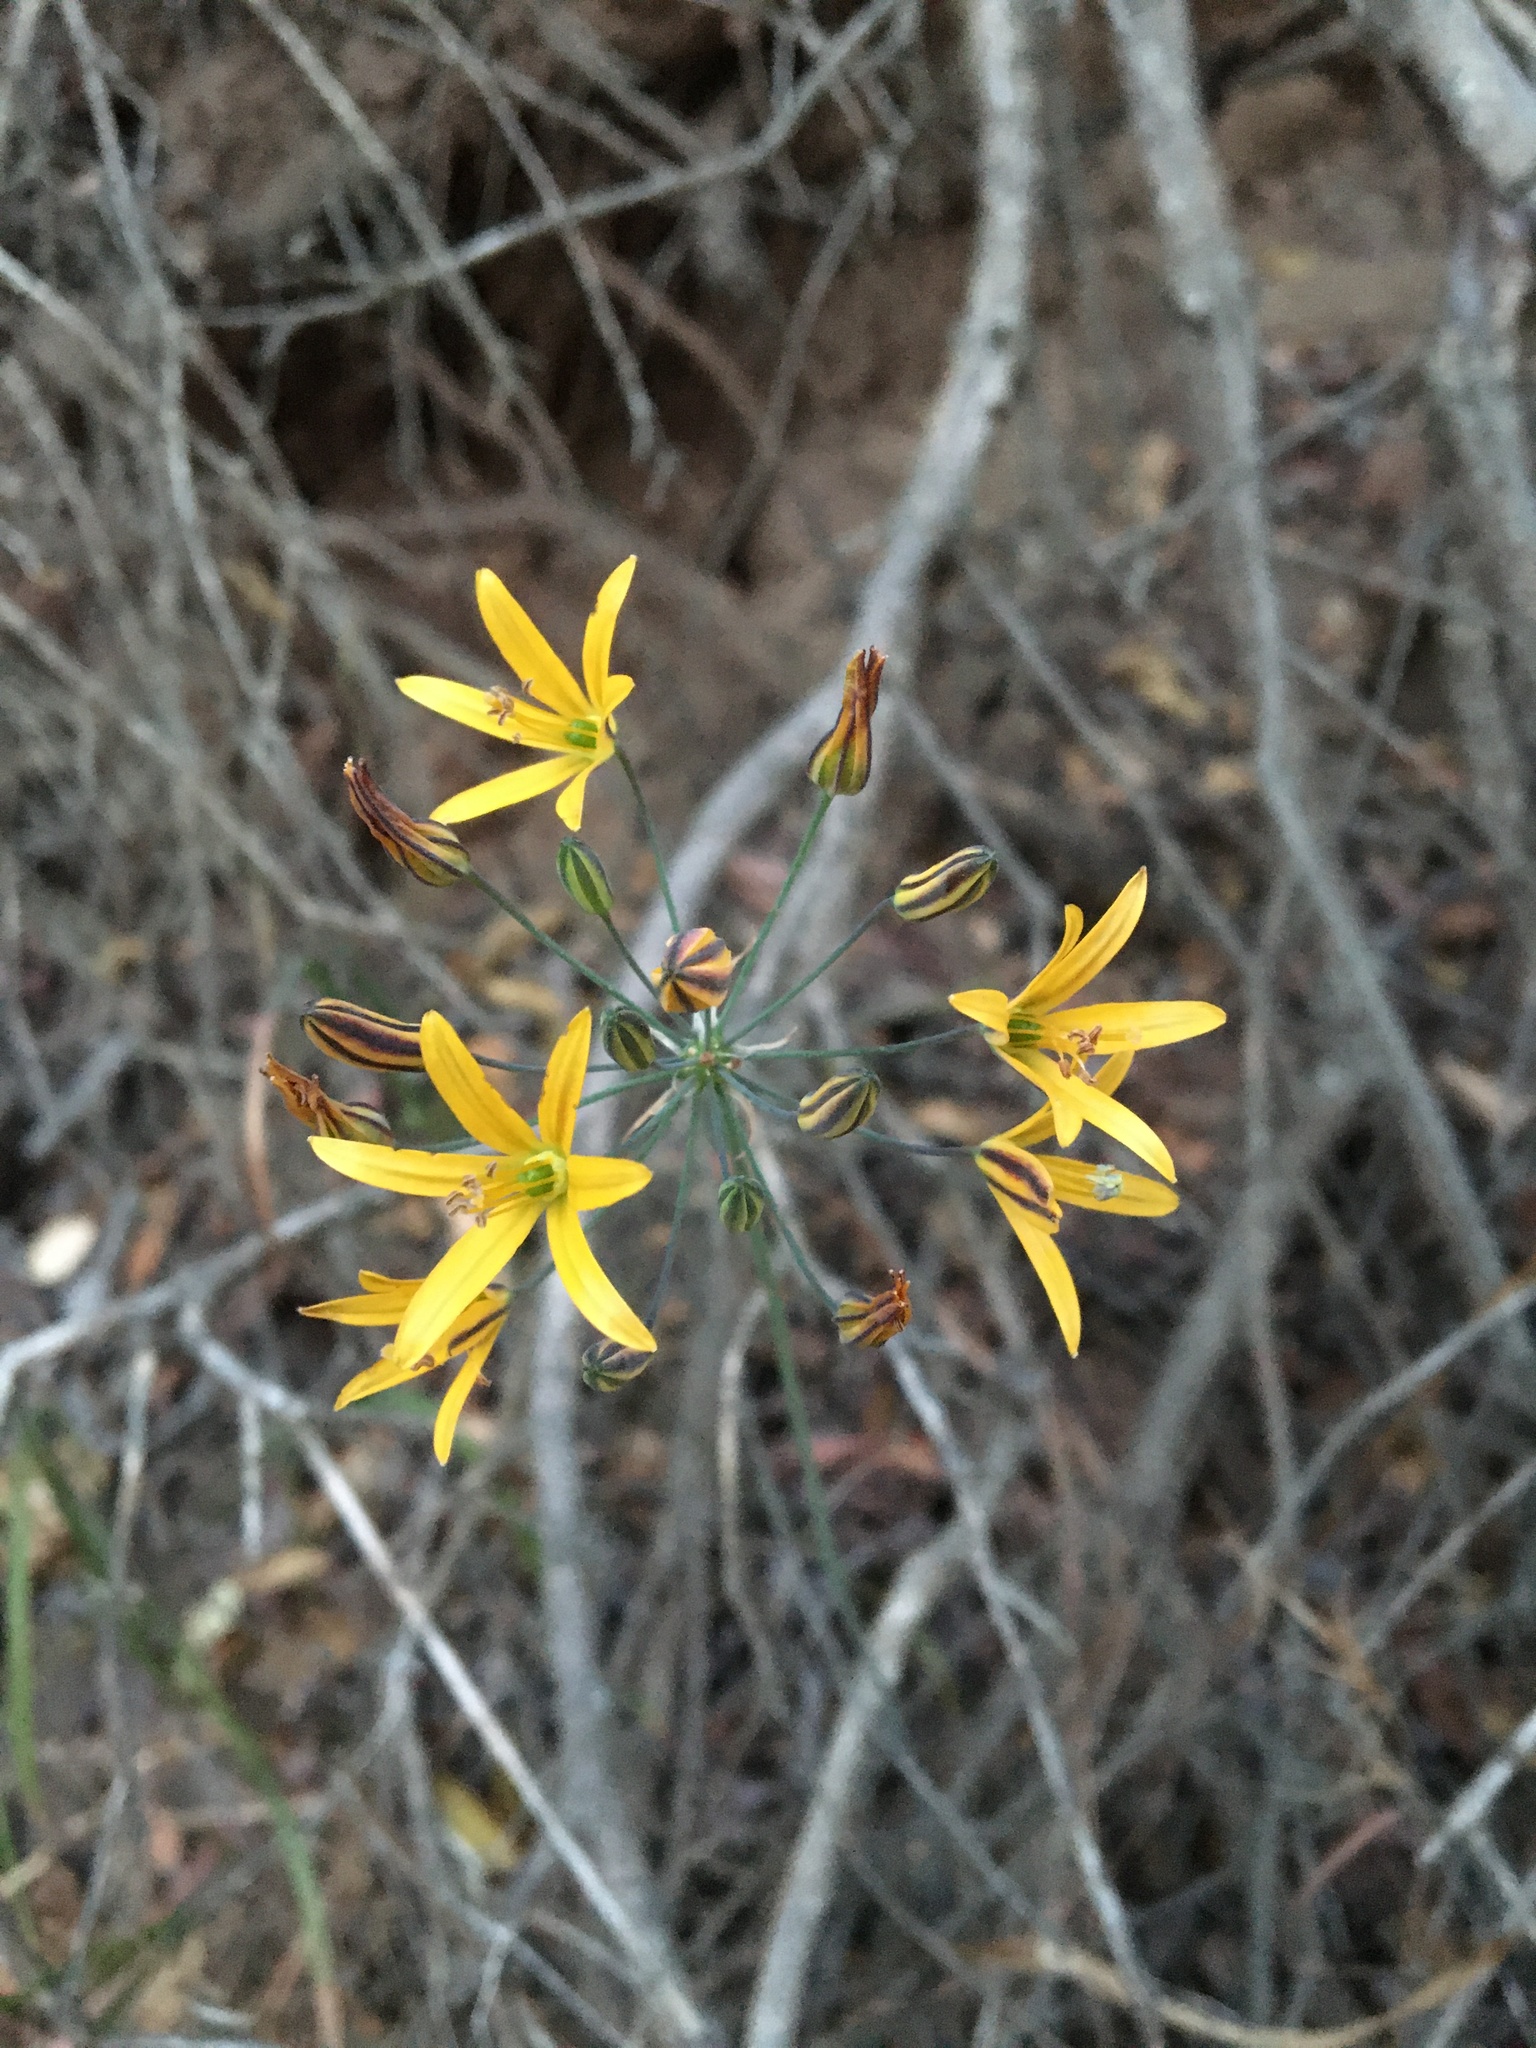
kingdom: Plantae
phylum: Tracheophyta
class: Liliopsida
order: Asparagales
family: Asparagaceae
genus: Bloomeria
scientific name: Bloomeria crocea
